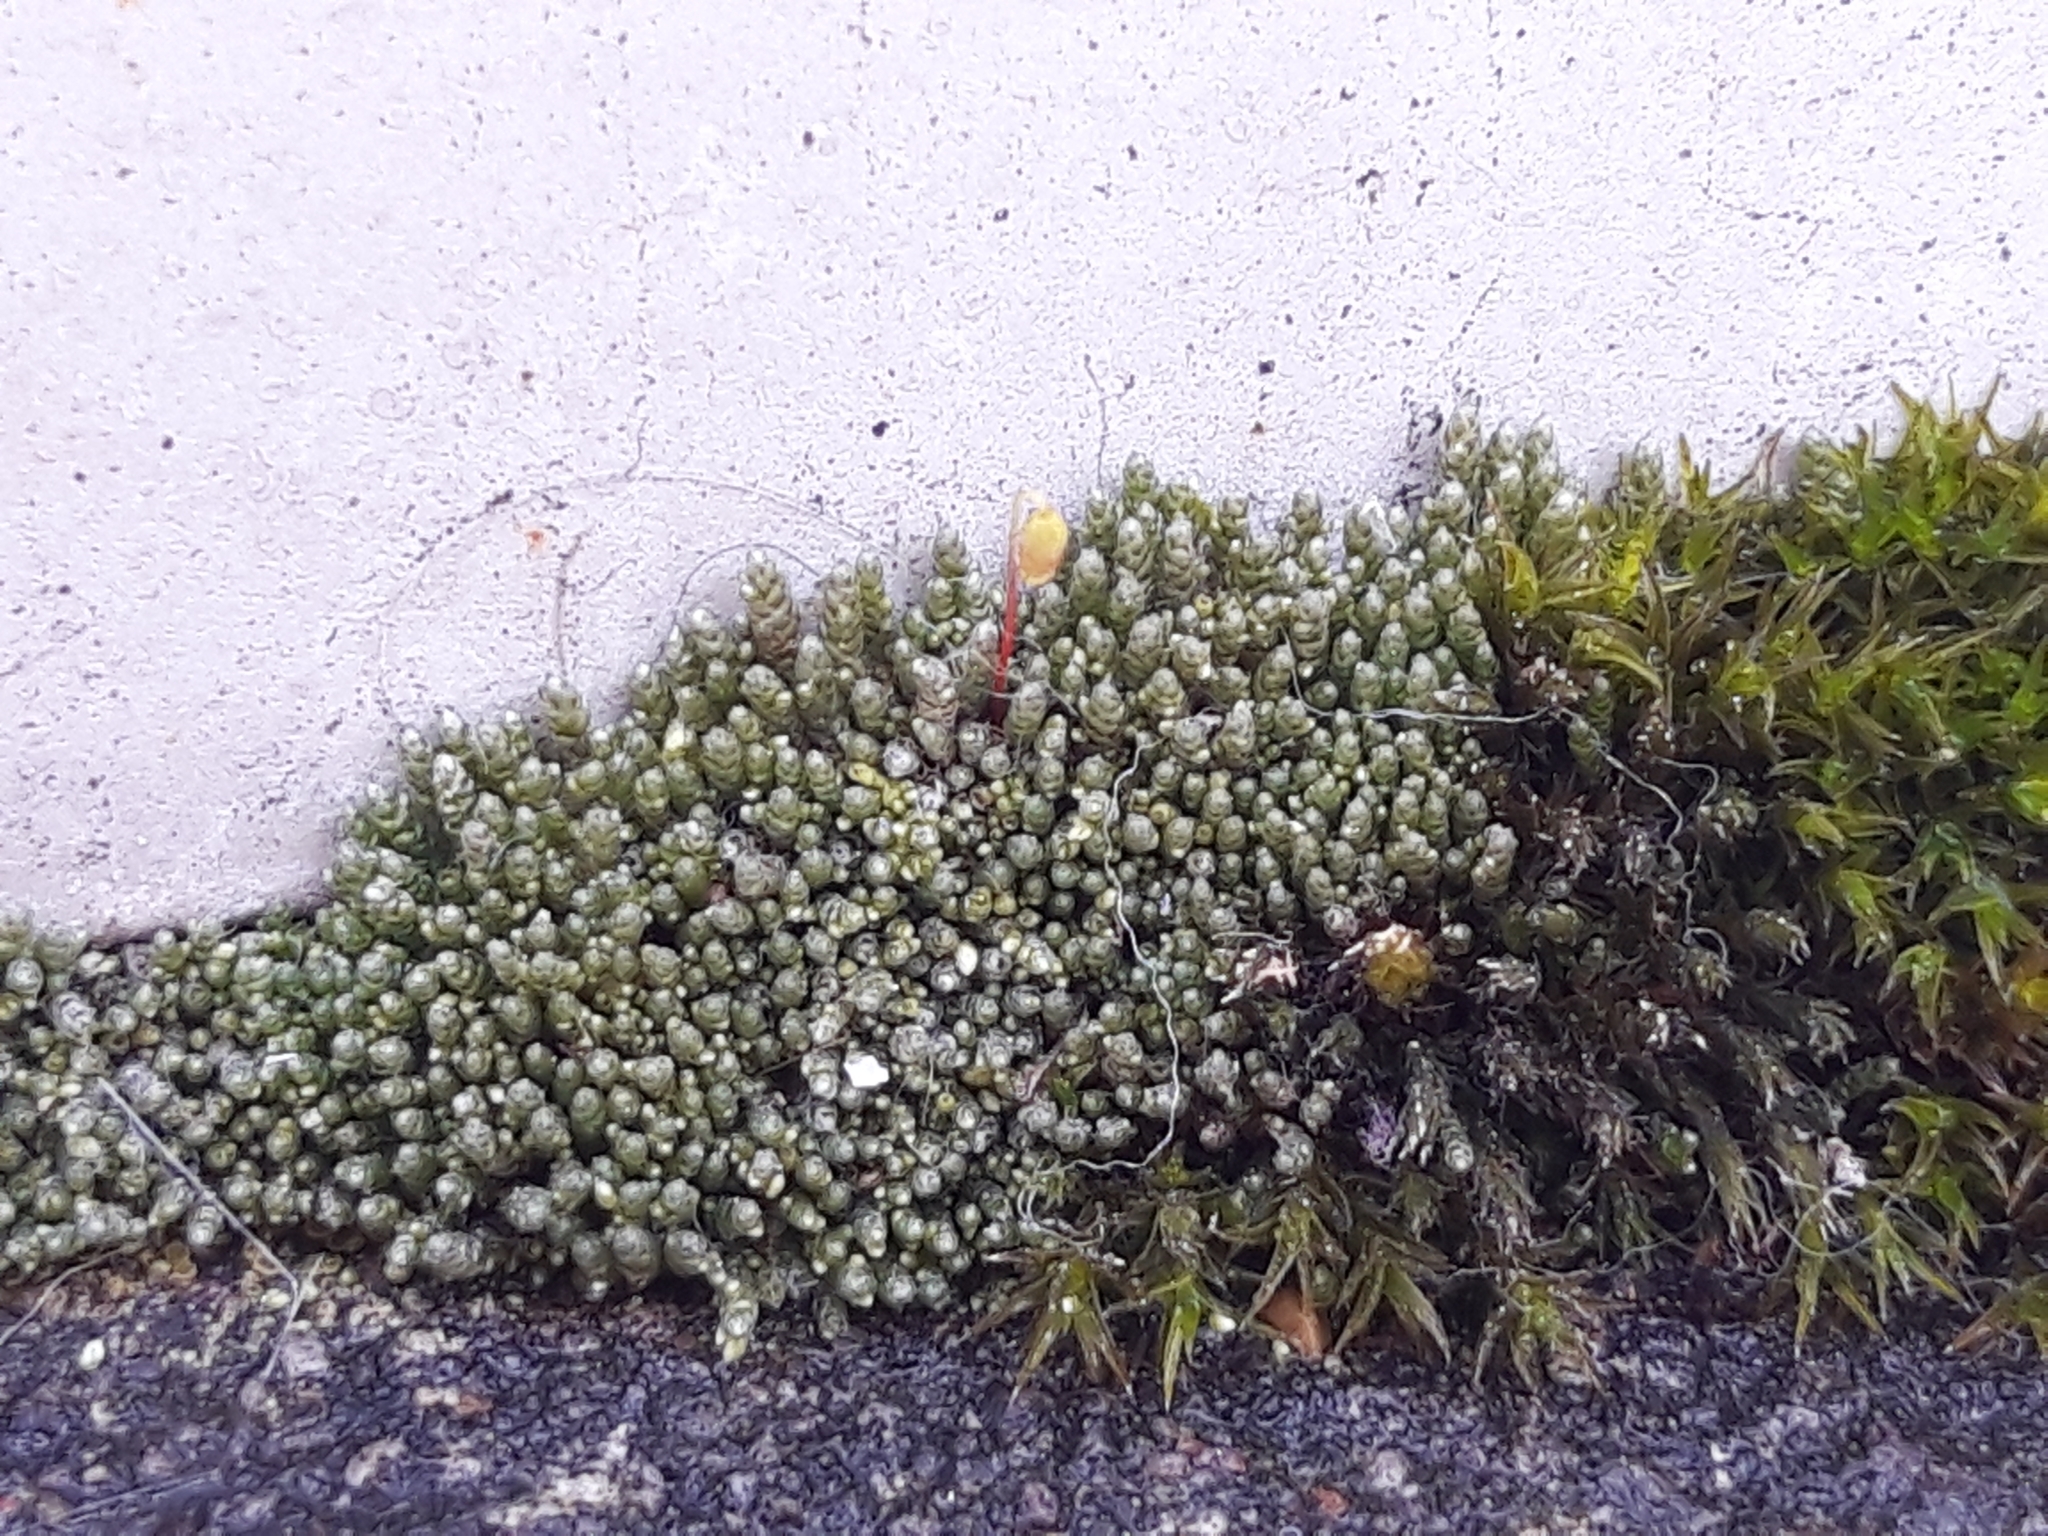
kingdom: Plantae
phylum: Bryophyta
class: Bryopsida
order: Bryales
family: Bryaceae
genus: Bryum
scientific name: Bryum argenteum
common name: Silver-moss
